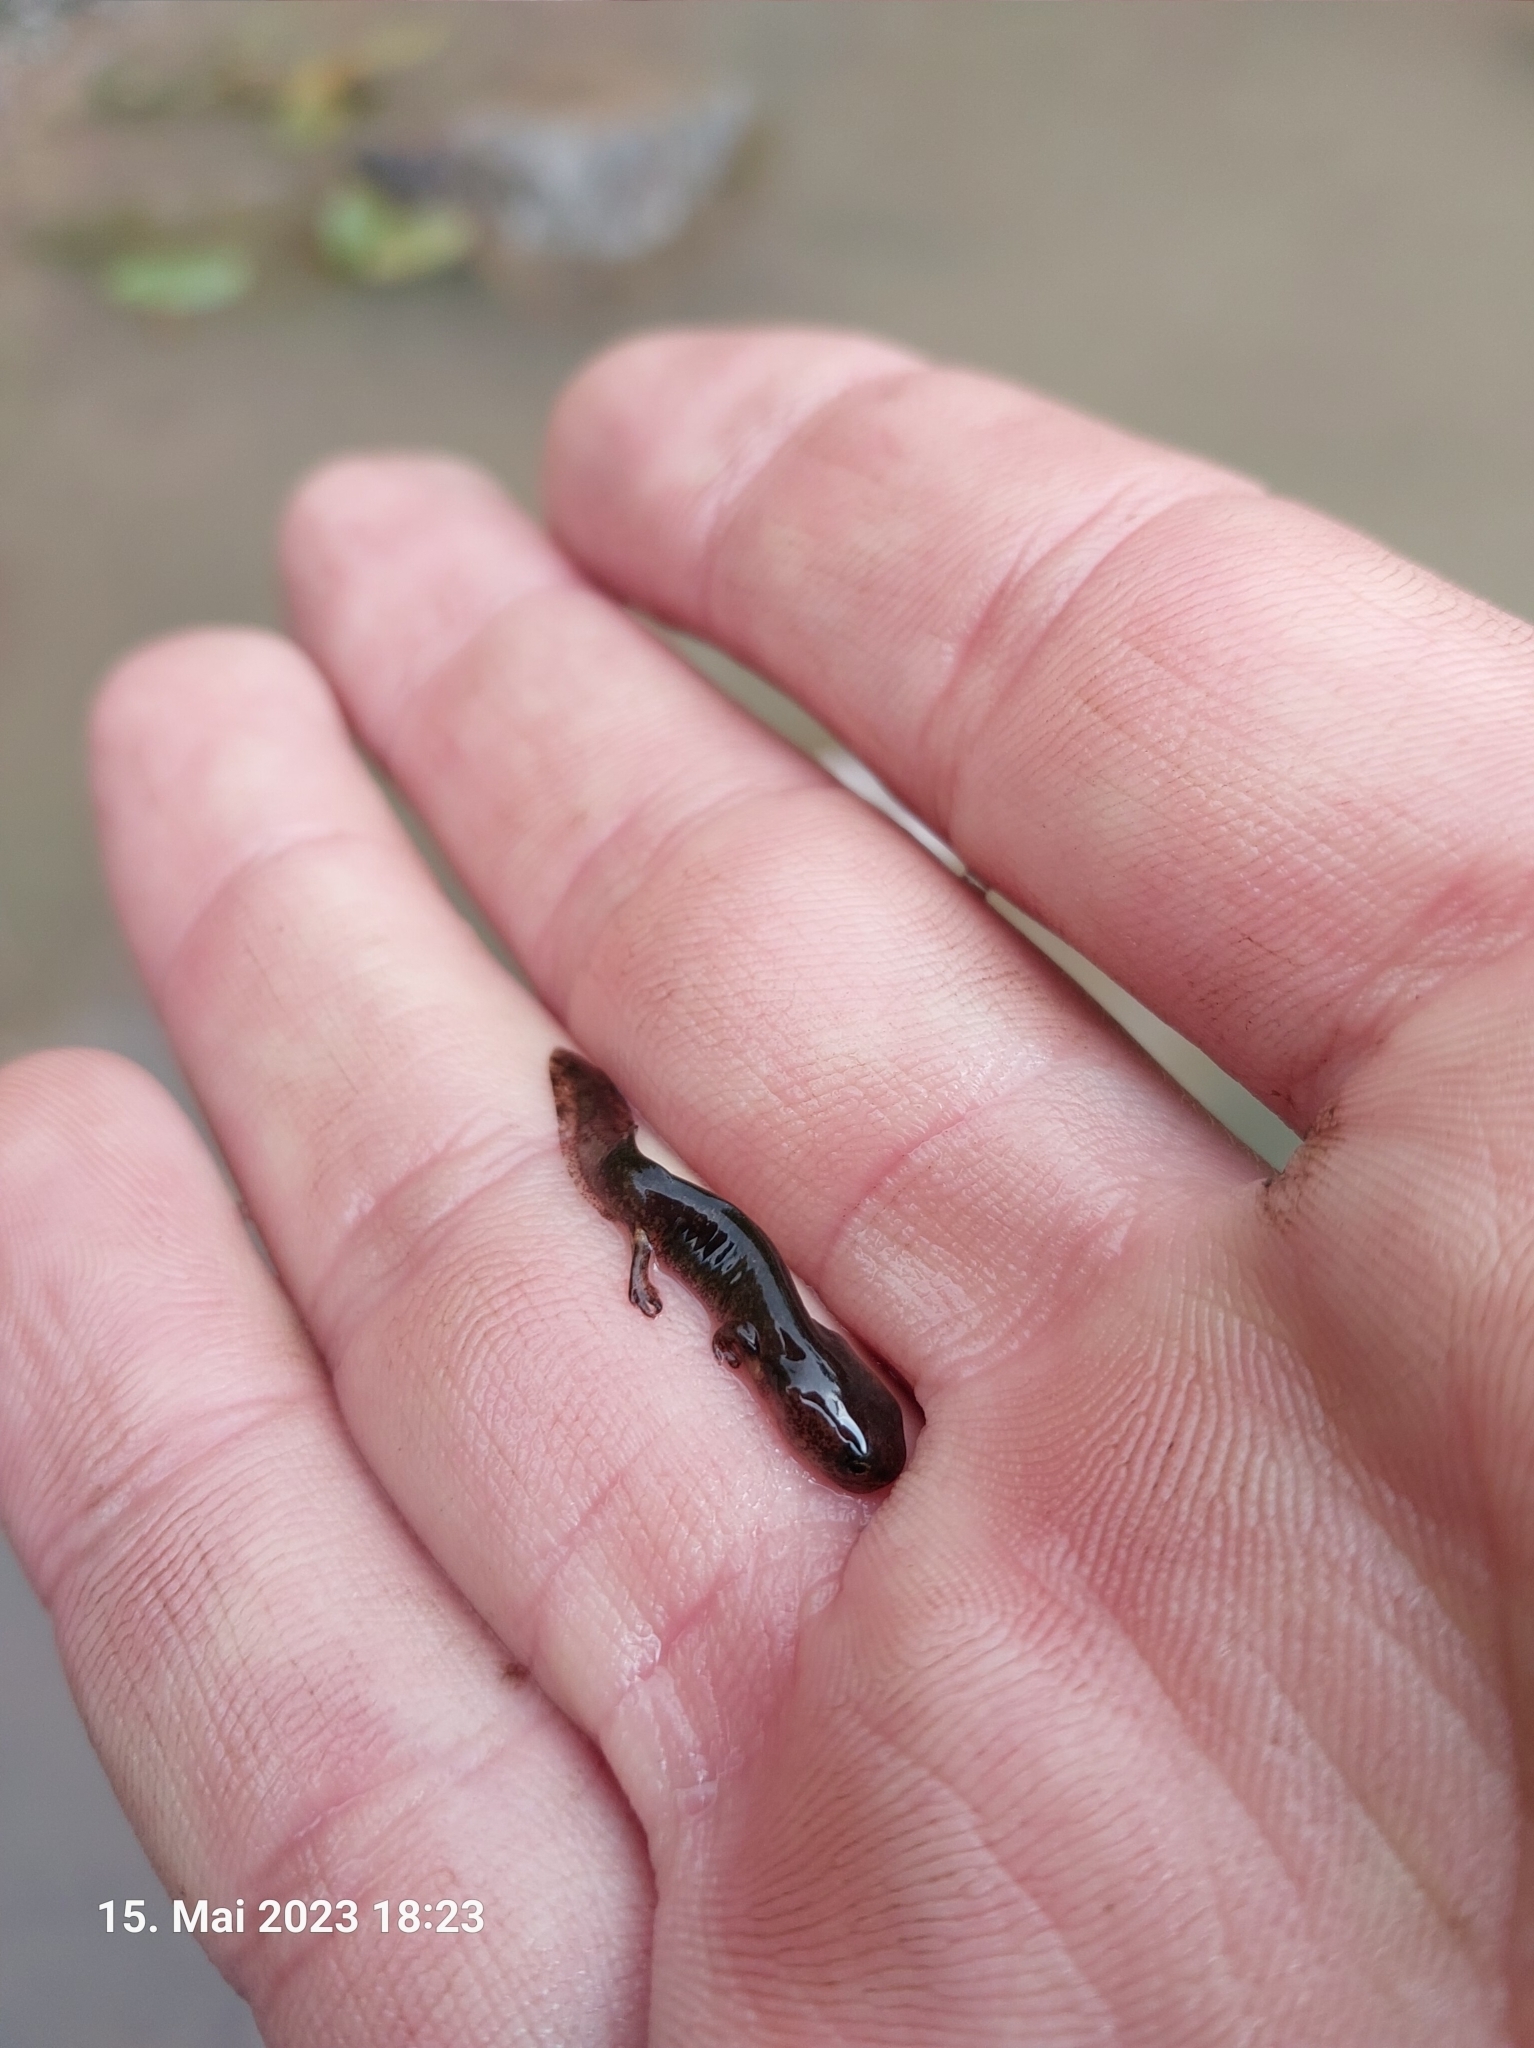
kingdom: Animalia
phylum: Chordata
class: Amphibia
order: Caudata
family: Salamandridae
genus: Salamandra
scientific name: Salamandra salamandra
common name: Fire salamander
